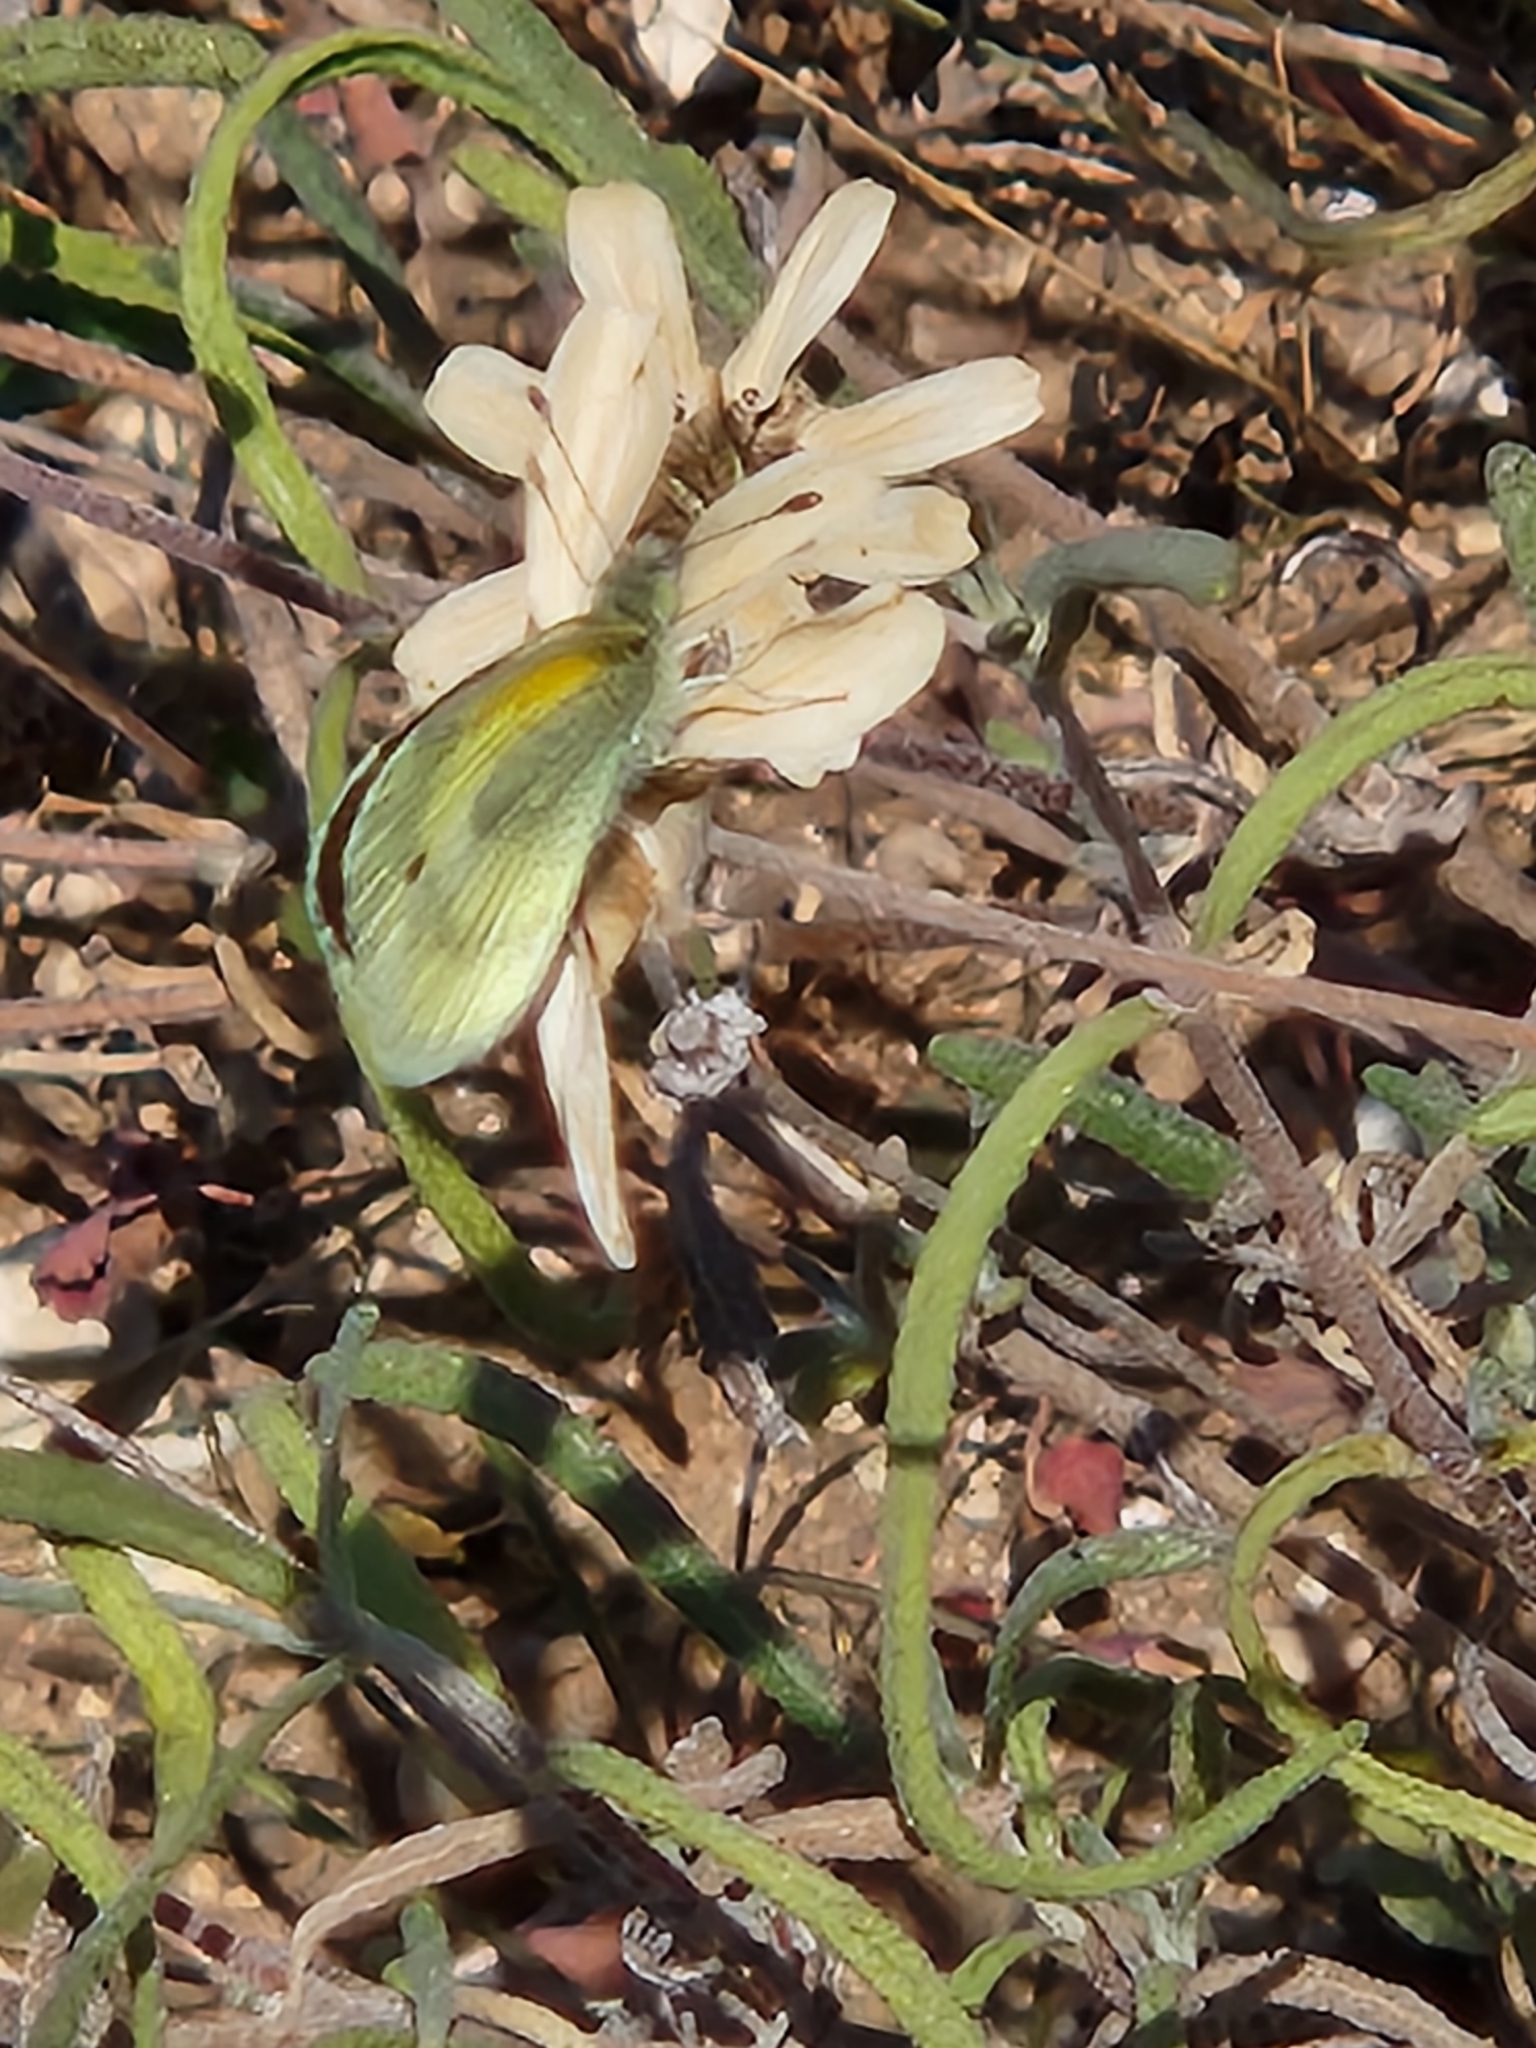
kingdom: Animalia
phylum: Arthropoda
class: Insecta
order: Lepidoptera
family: Pieridae
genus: Nathalis
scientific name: Nathalis iole
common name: Dainty sulphur
